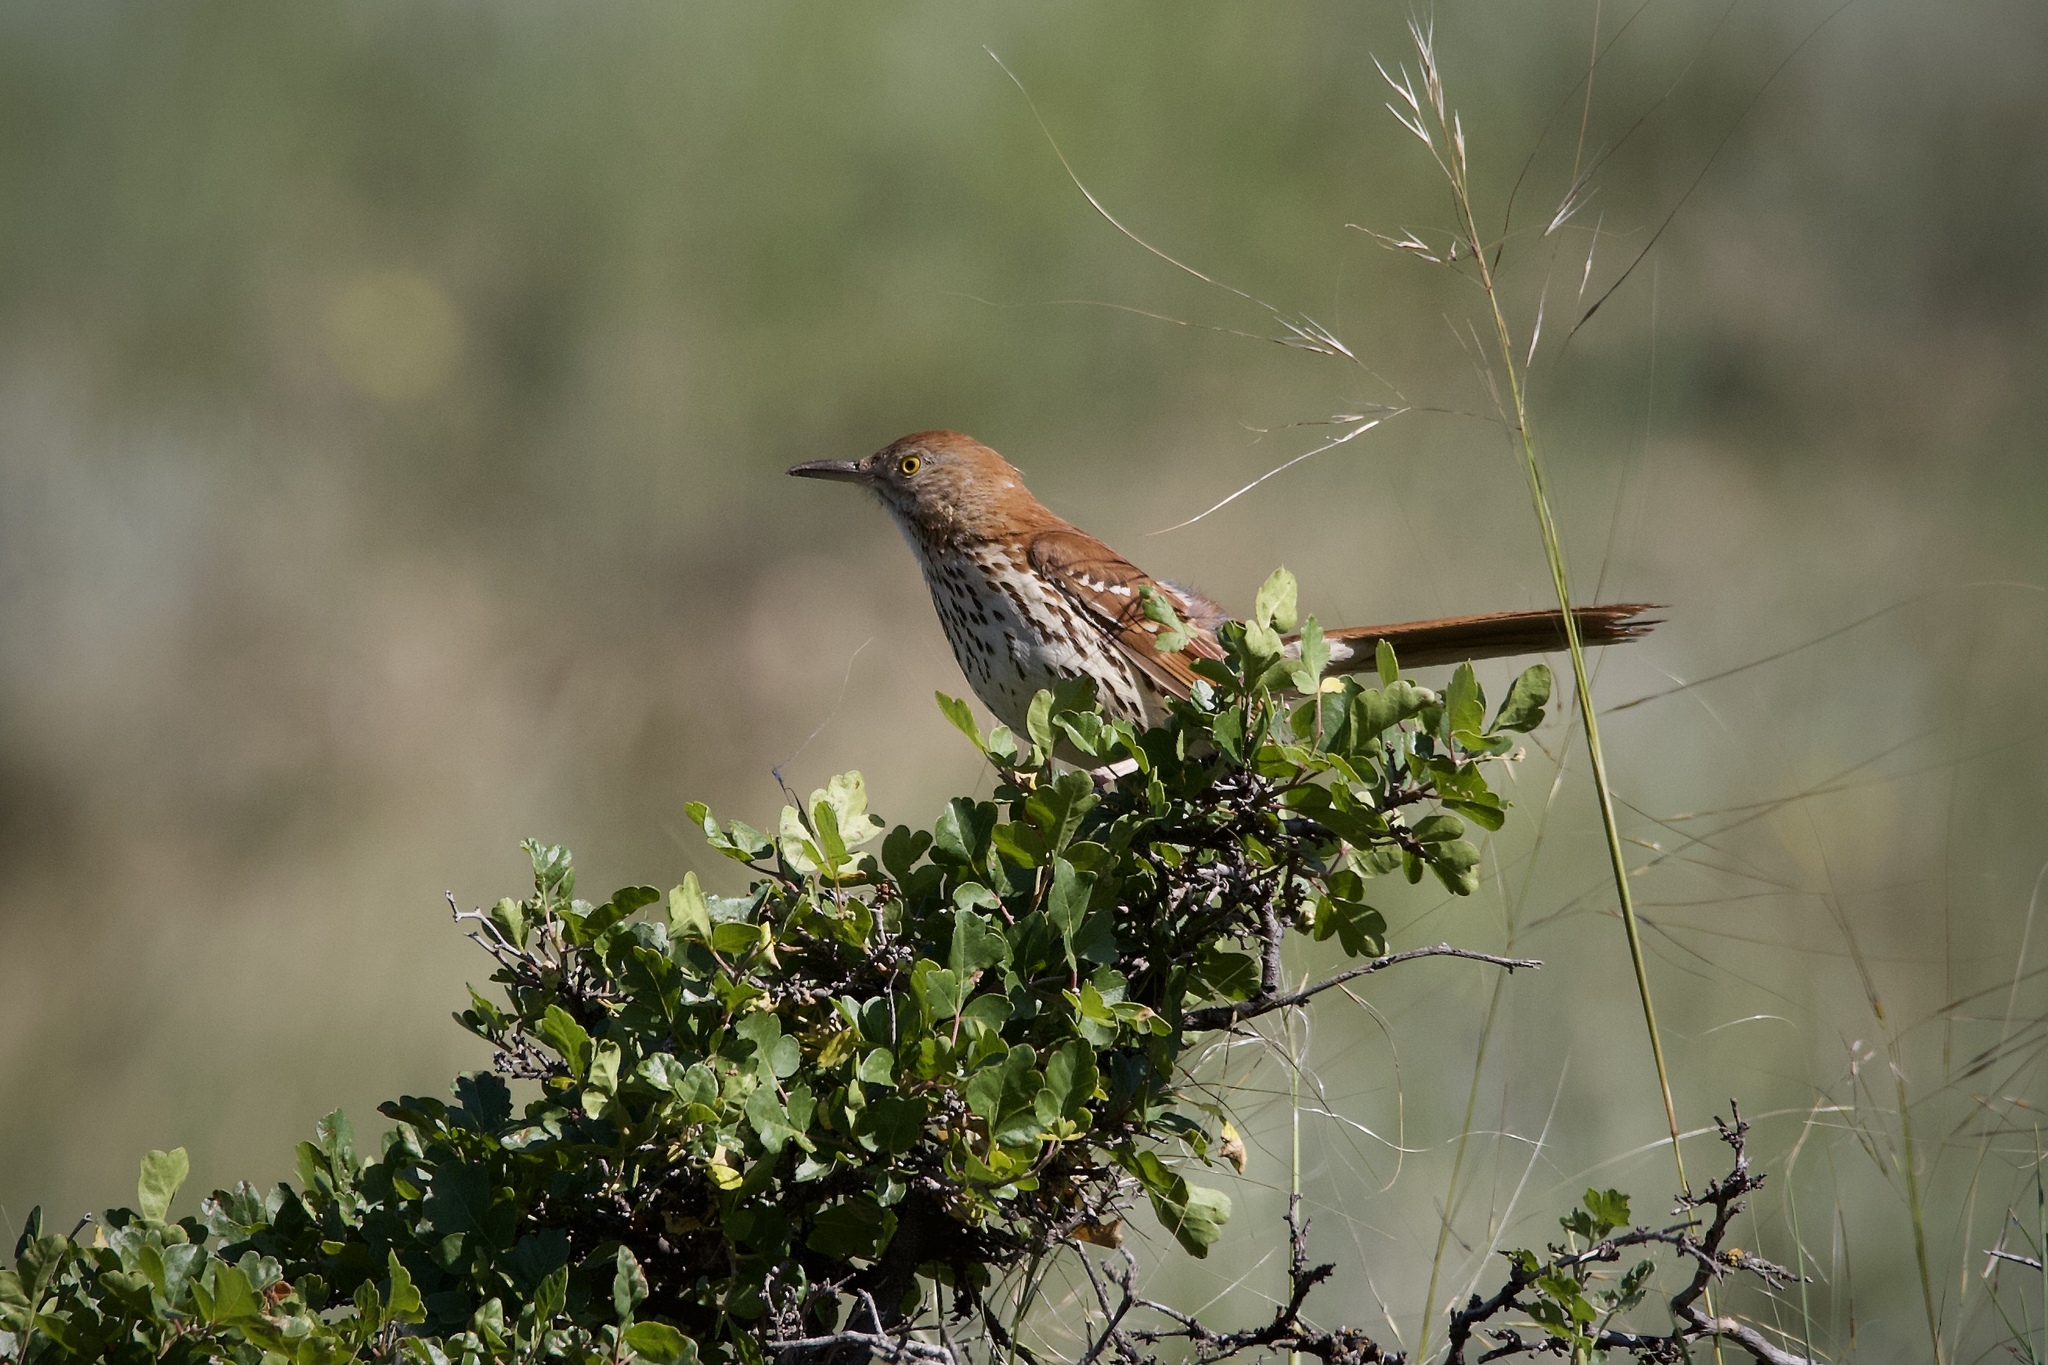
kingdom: Animalia
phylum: Chordata
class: Aves
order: Passeriformes
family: Mimidae
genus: Toxostoma
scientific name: Toxostoma rufum
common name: Brown thrasher
